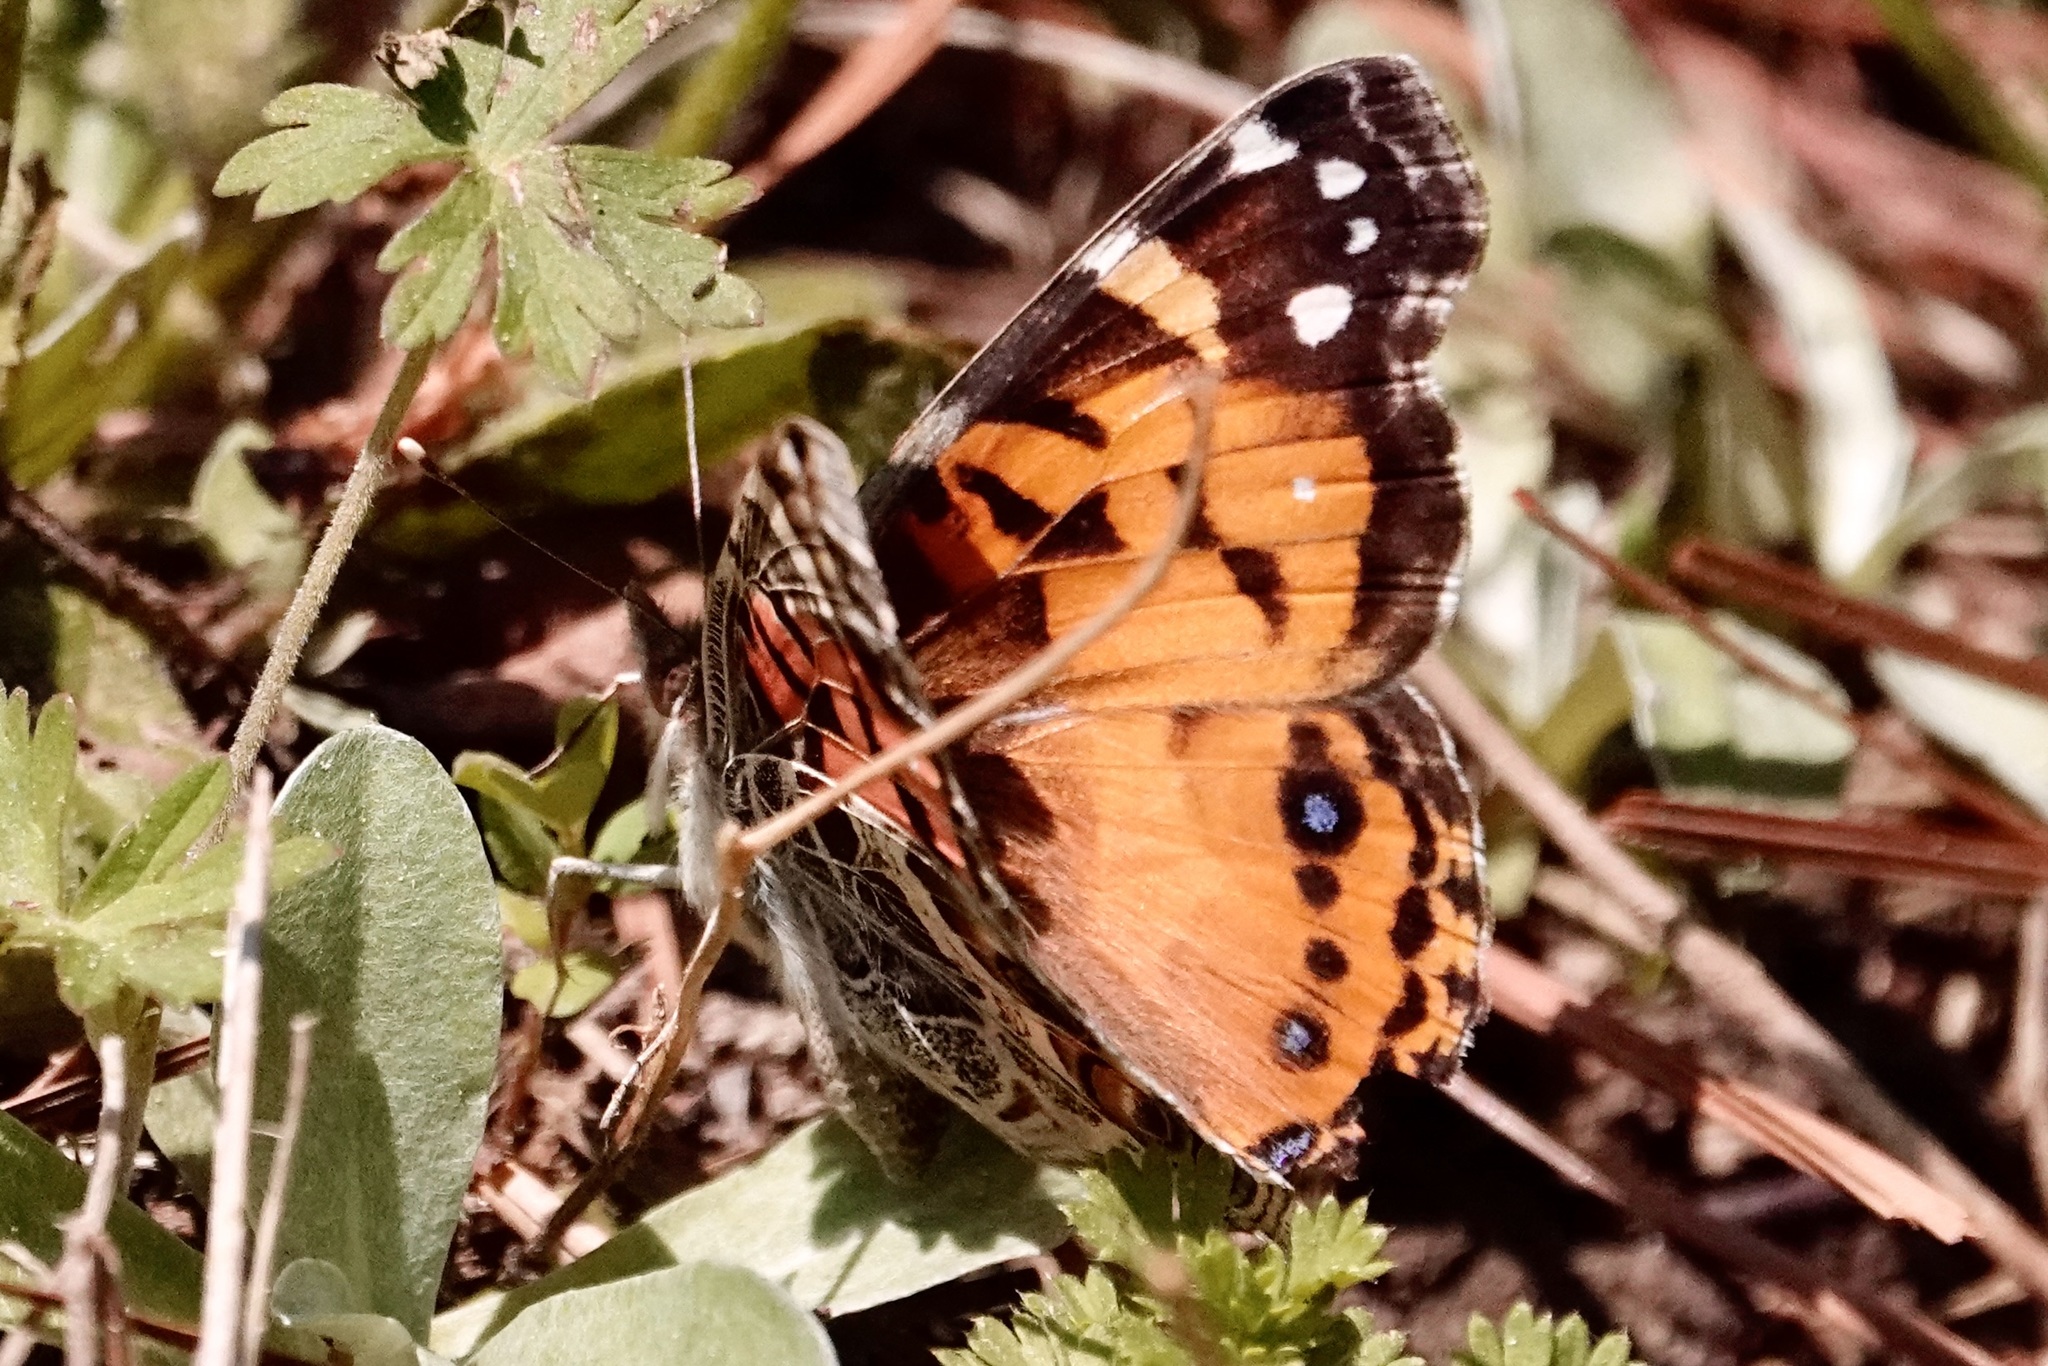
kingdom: Animalia
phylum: Arthropoda
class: Insecta
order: Lepidoptera
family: Nymphalidae
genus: Vanessa
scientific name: Vanessa virginiensis
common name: American lady
